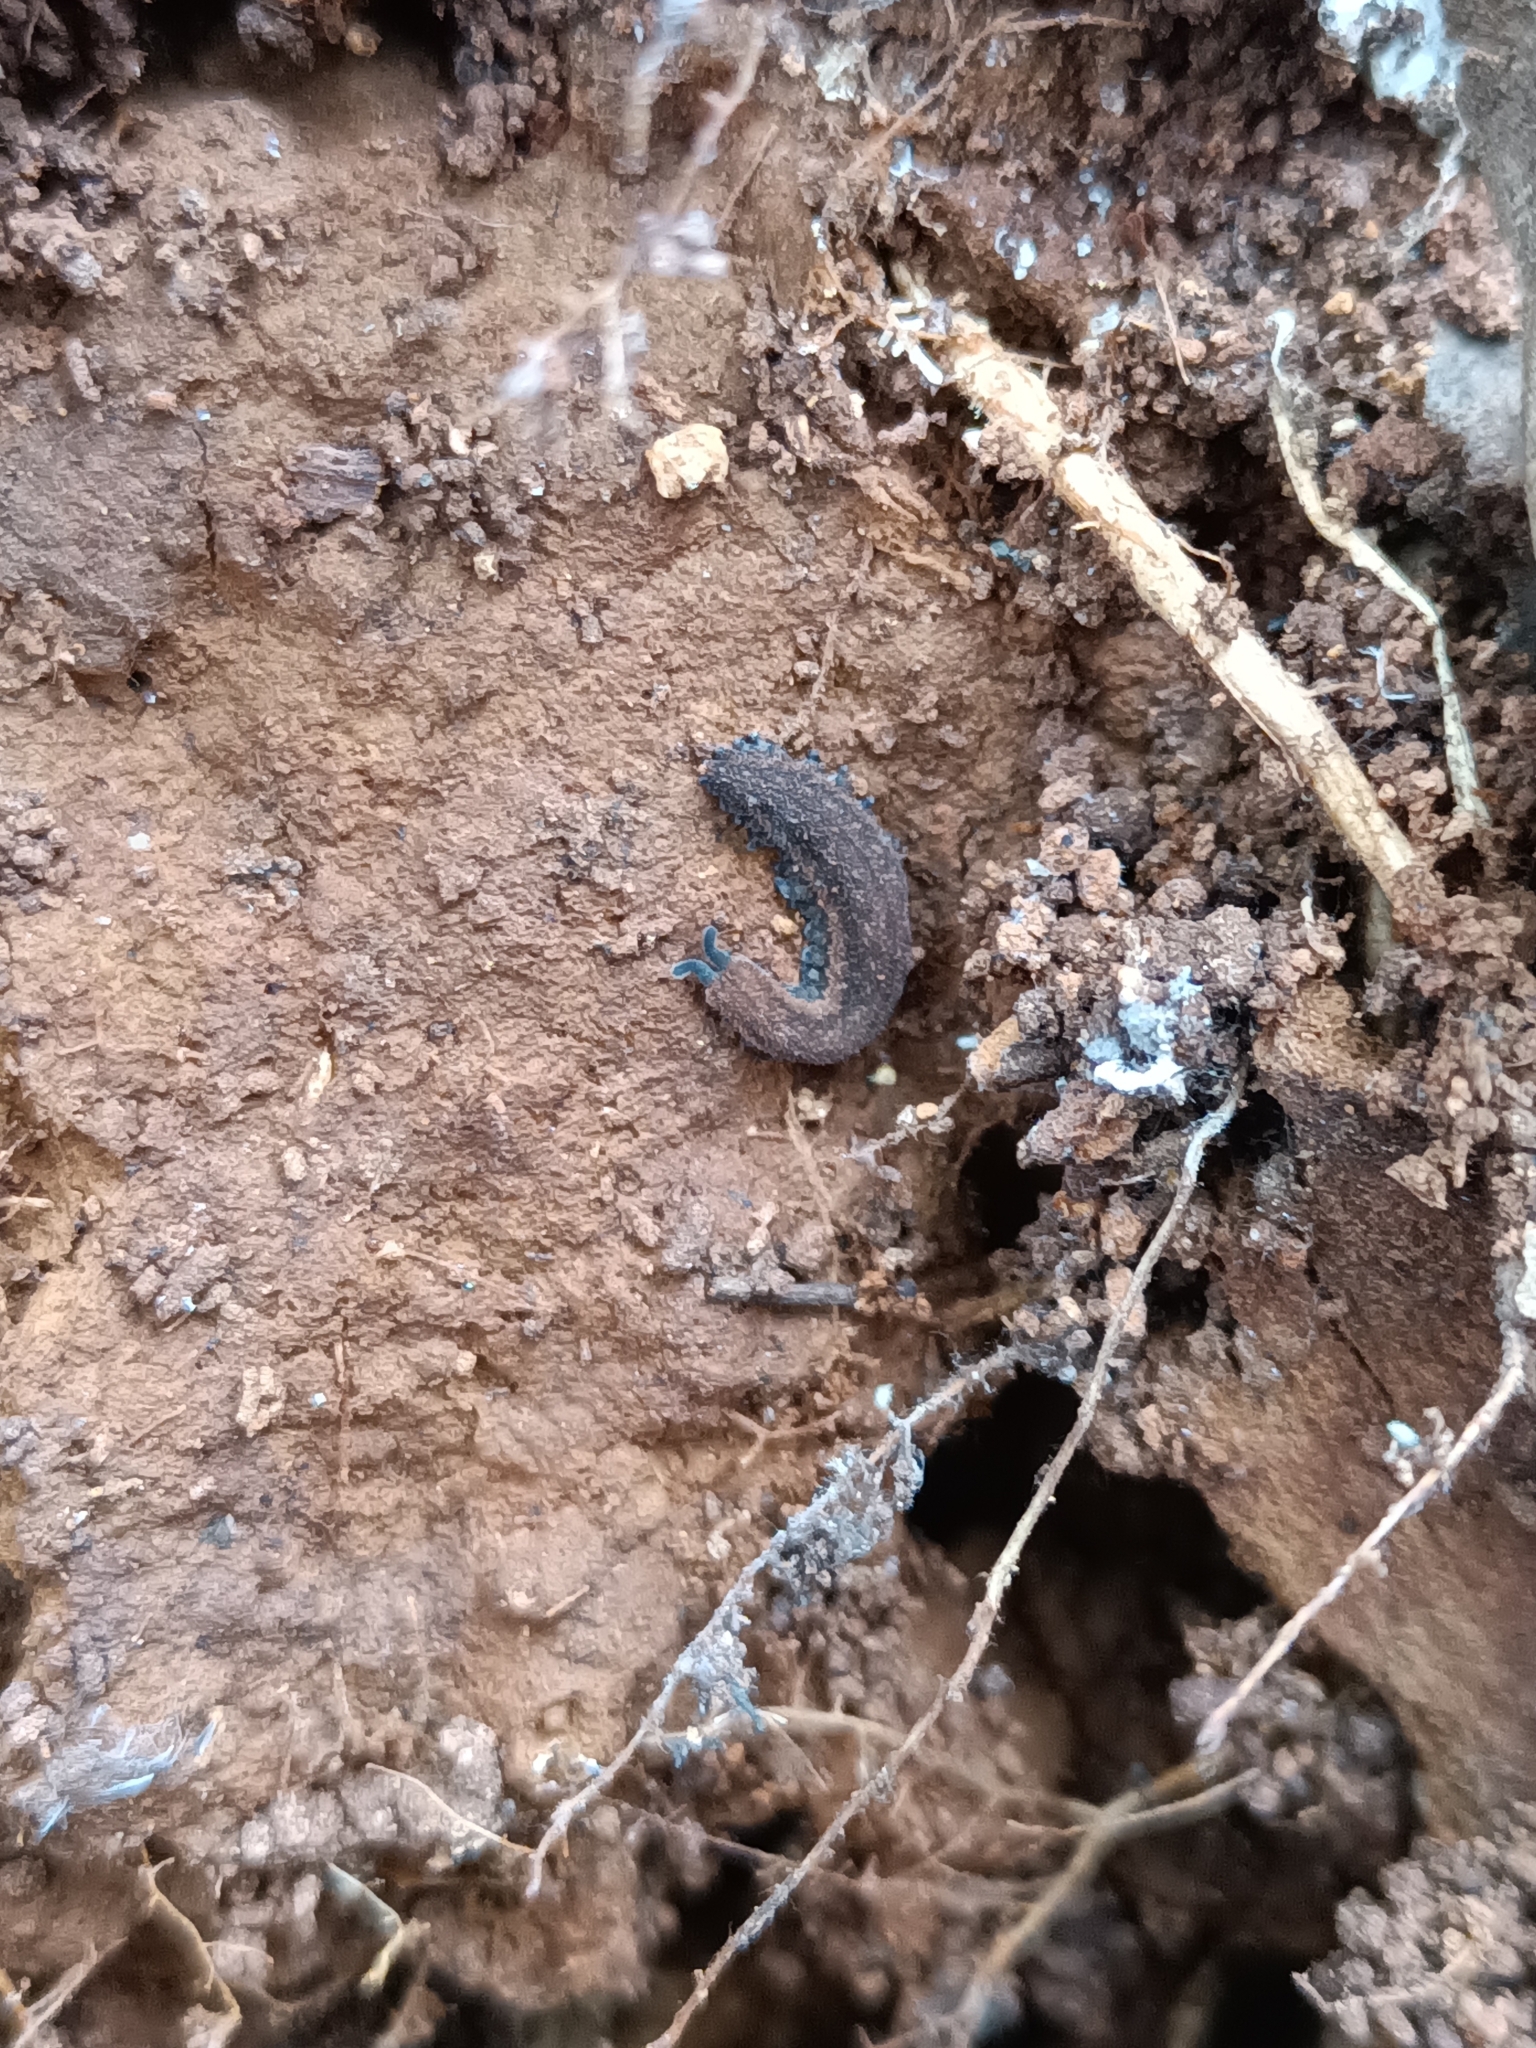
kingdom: Animalia
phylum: Onychophora
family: Peripatopsidae
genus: Kumbadjena
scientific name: Kumbadjena extrema
